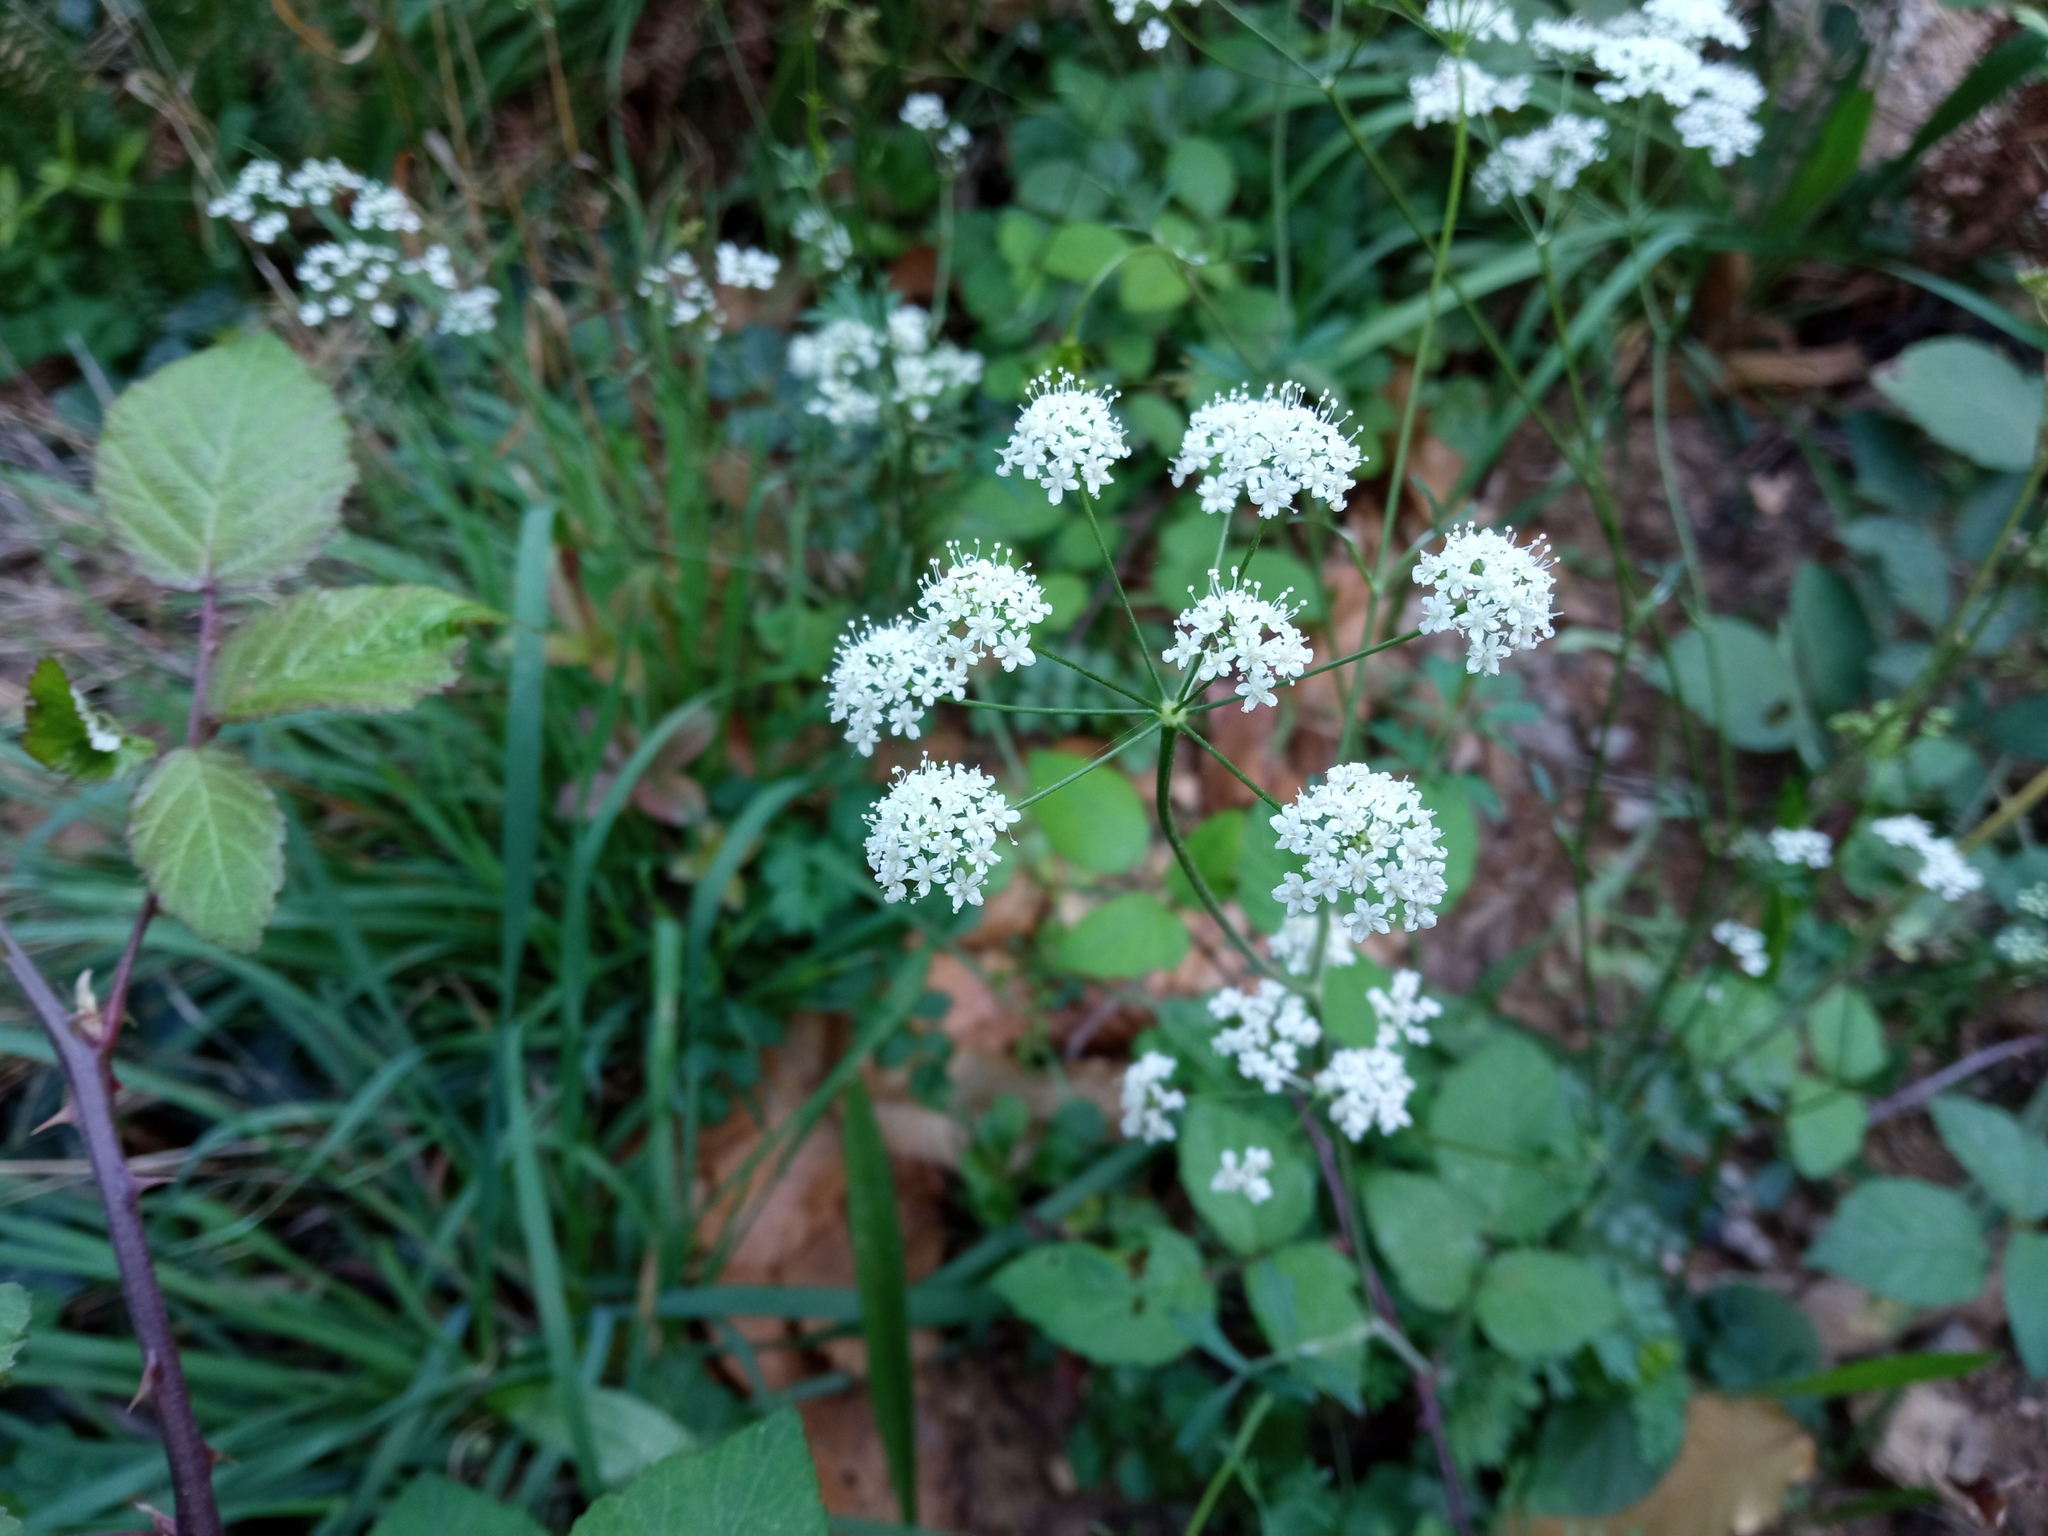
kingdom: Plantae
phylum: Tracheophyta
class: Magnoliopsida
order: Apiales
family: Apiaceae
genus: Pimpinella
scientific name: Pimpinella saxifraga
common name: Burnet-saxifrage
